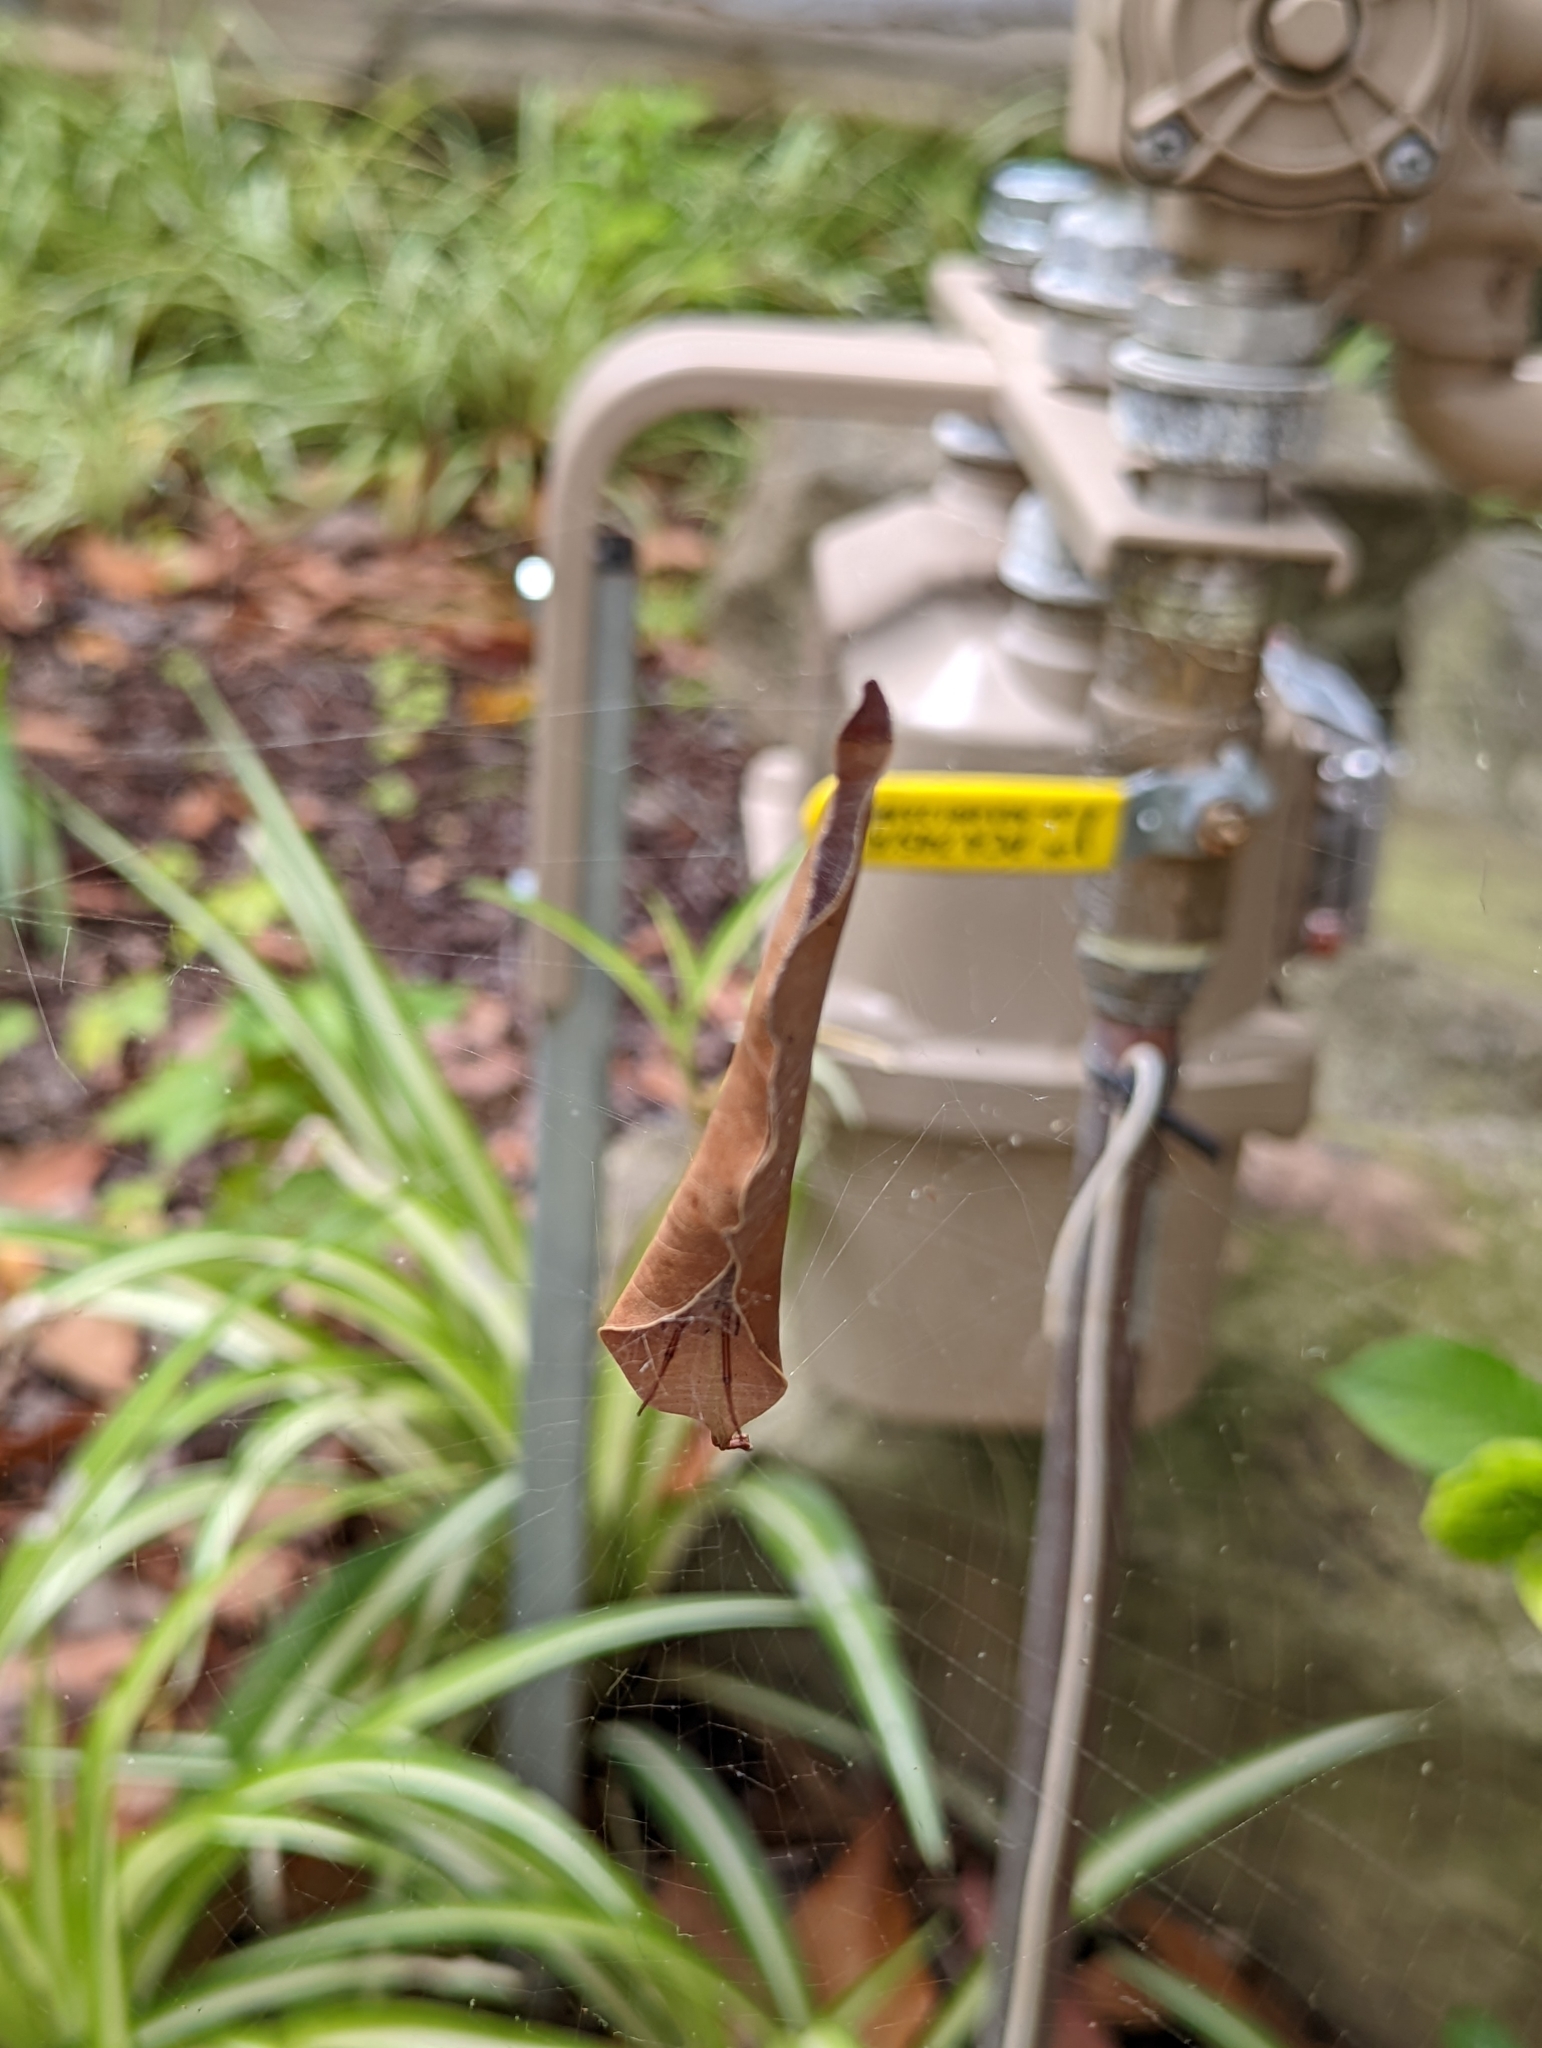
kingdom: Animalia
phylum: Arthropoda
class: Arachnida
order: Araneae
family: Araneidae
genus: Phonognatha
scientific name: Phonognatha graeffei
